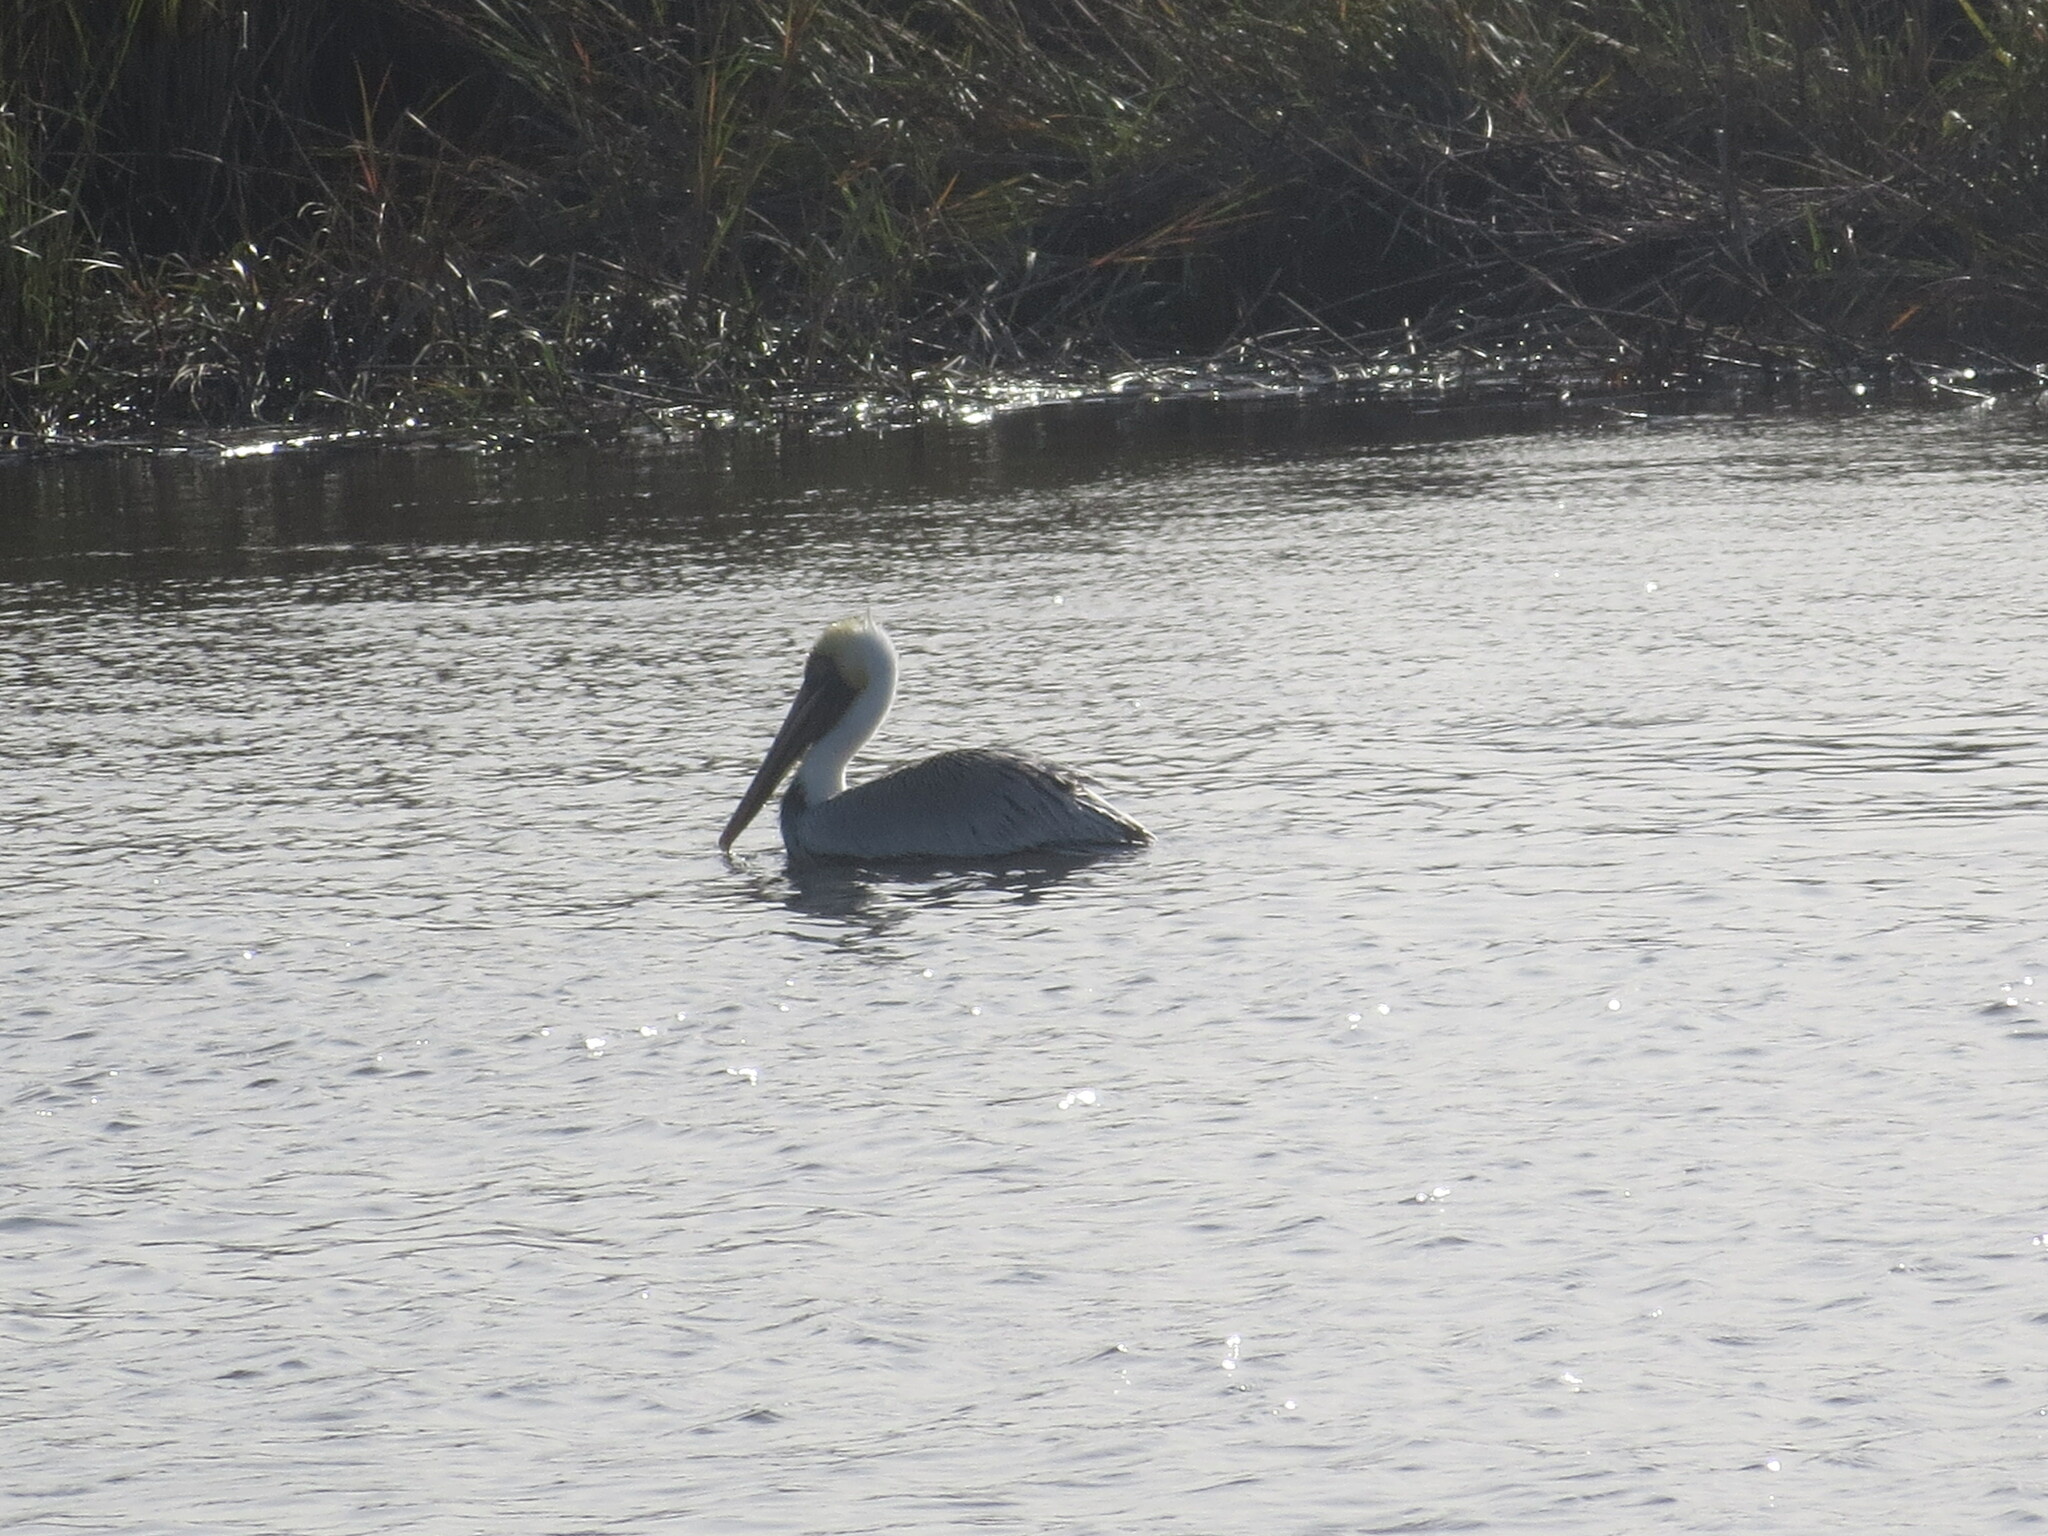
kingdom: Animalia
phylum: Chordata
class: Aves
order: Pelecaniformes
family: Pelecanidae
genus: Pelecanus
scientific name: Pelecanus occidentalis
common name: Brown pelican
